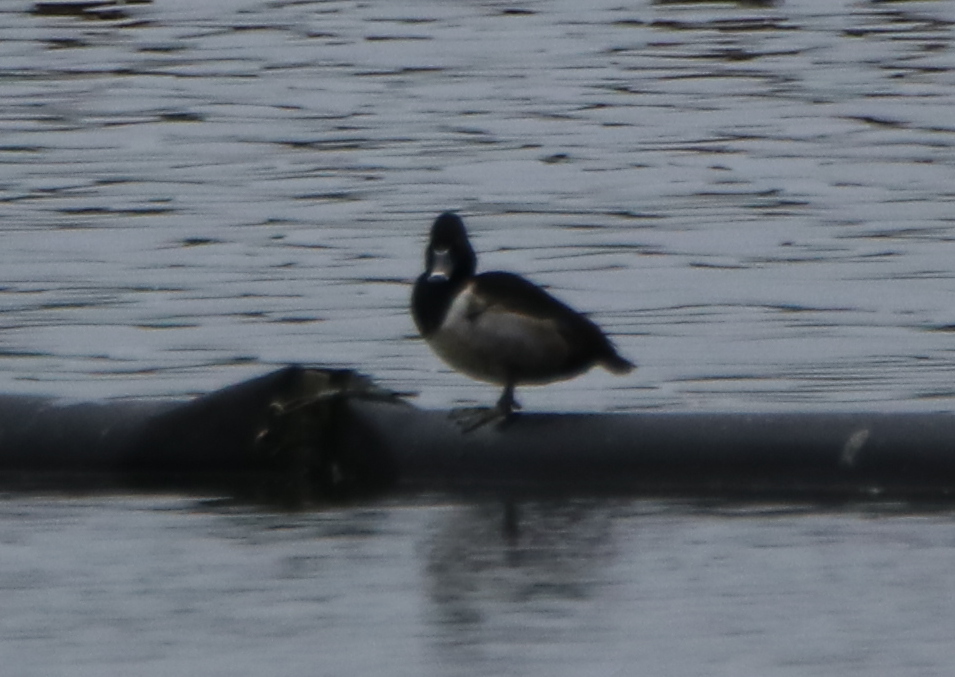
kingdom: Animalia
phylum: Chordata
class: Aves
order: Anseriformes
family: Anatidae
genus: Aythya
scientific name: Aythya collaris
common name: Ring-necked duck
